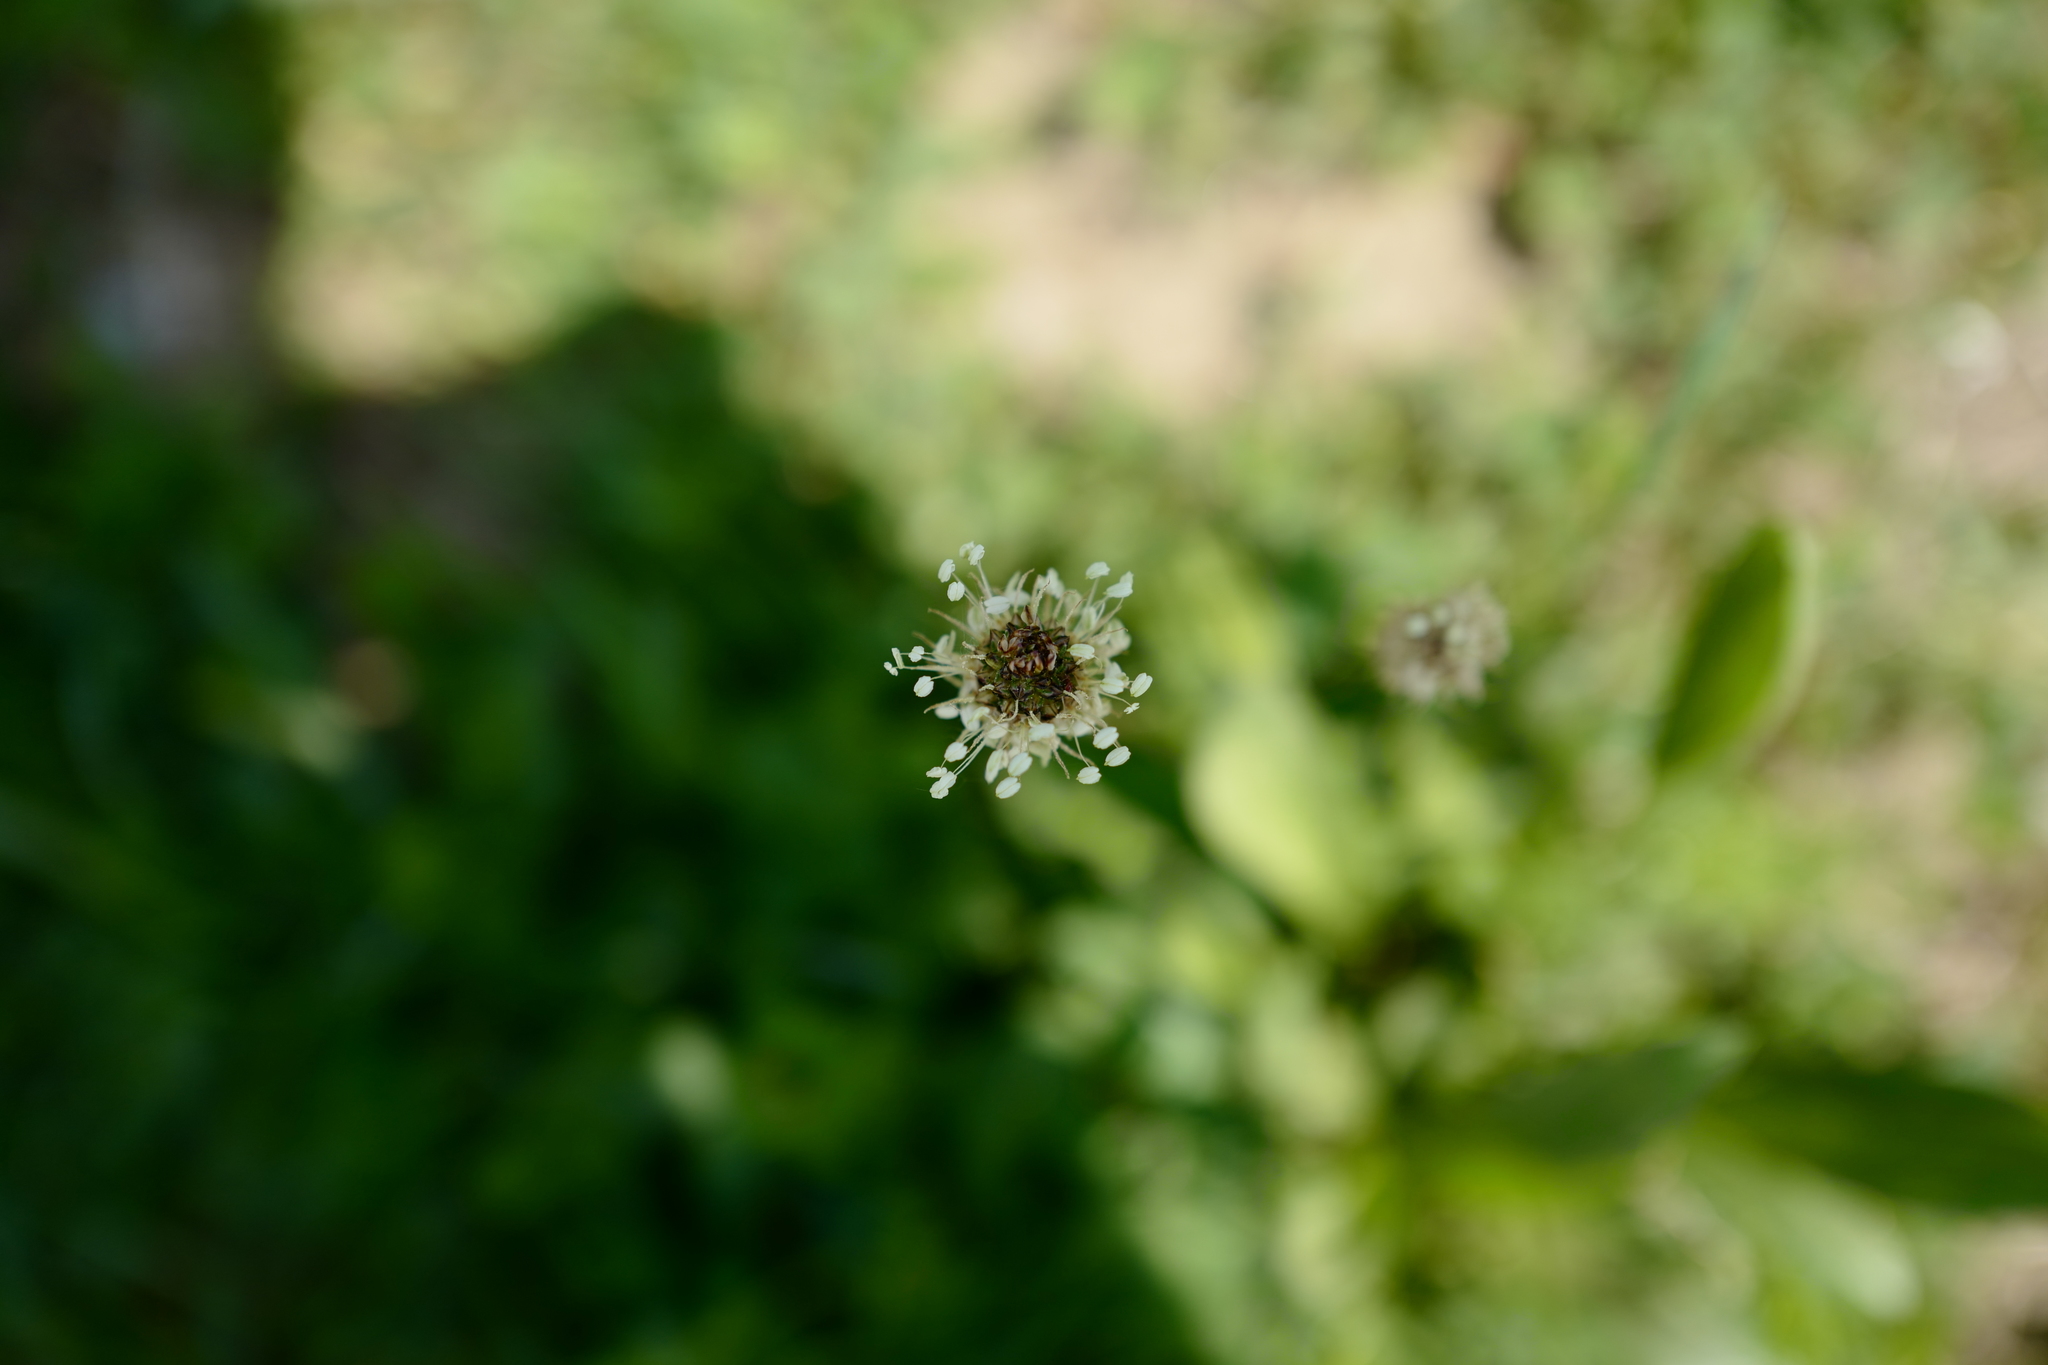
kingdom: Plantae
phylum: Tracheophyta
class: Magnoliopsida
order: Lamiales
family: Plantaginaceae
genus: Plantago
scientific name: Plantago lanceolata
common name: Ribwort plantain
